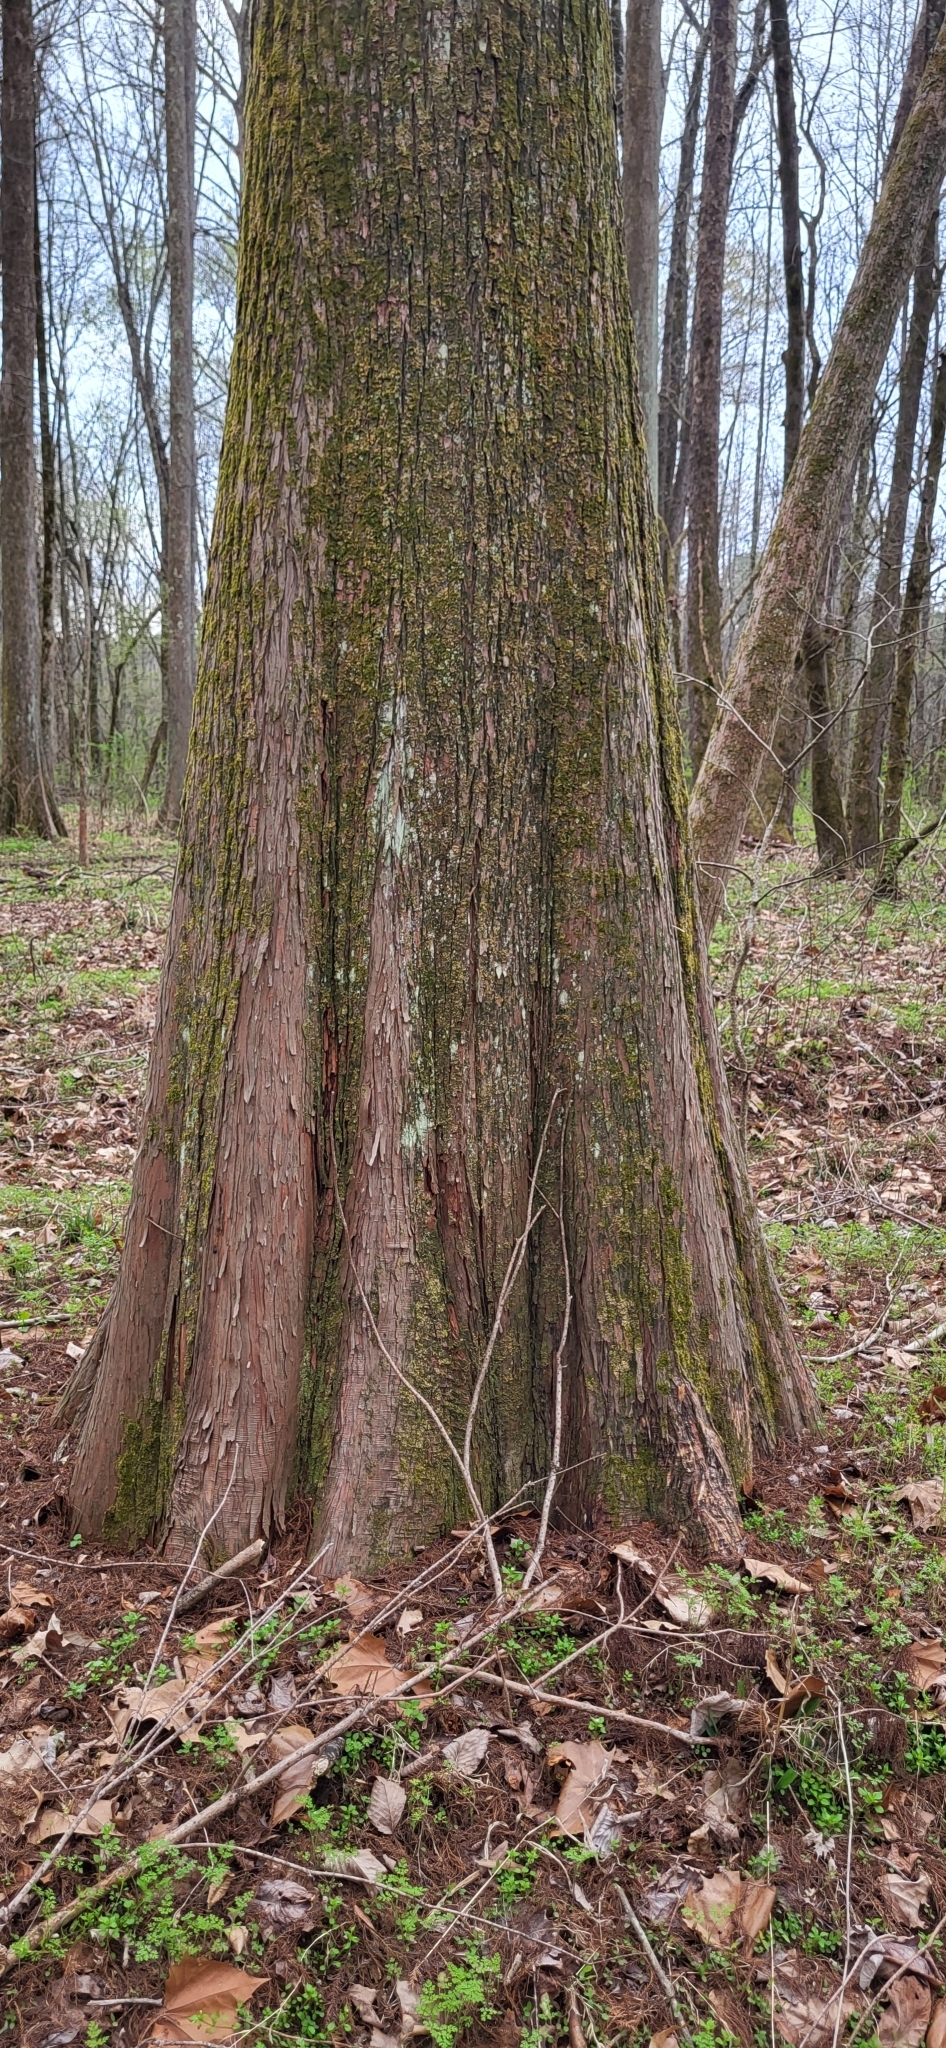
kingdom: Plantae
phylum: Tracheophyta
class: Pinopsida
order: Pinales
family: Cupressaceae
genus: Taxodium
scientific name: Taxodium distichum
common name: Bald cypress
